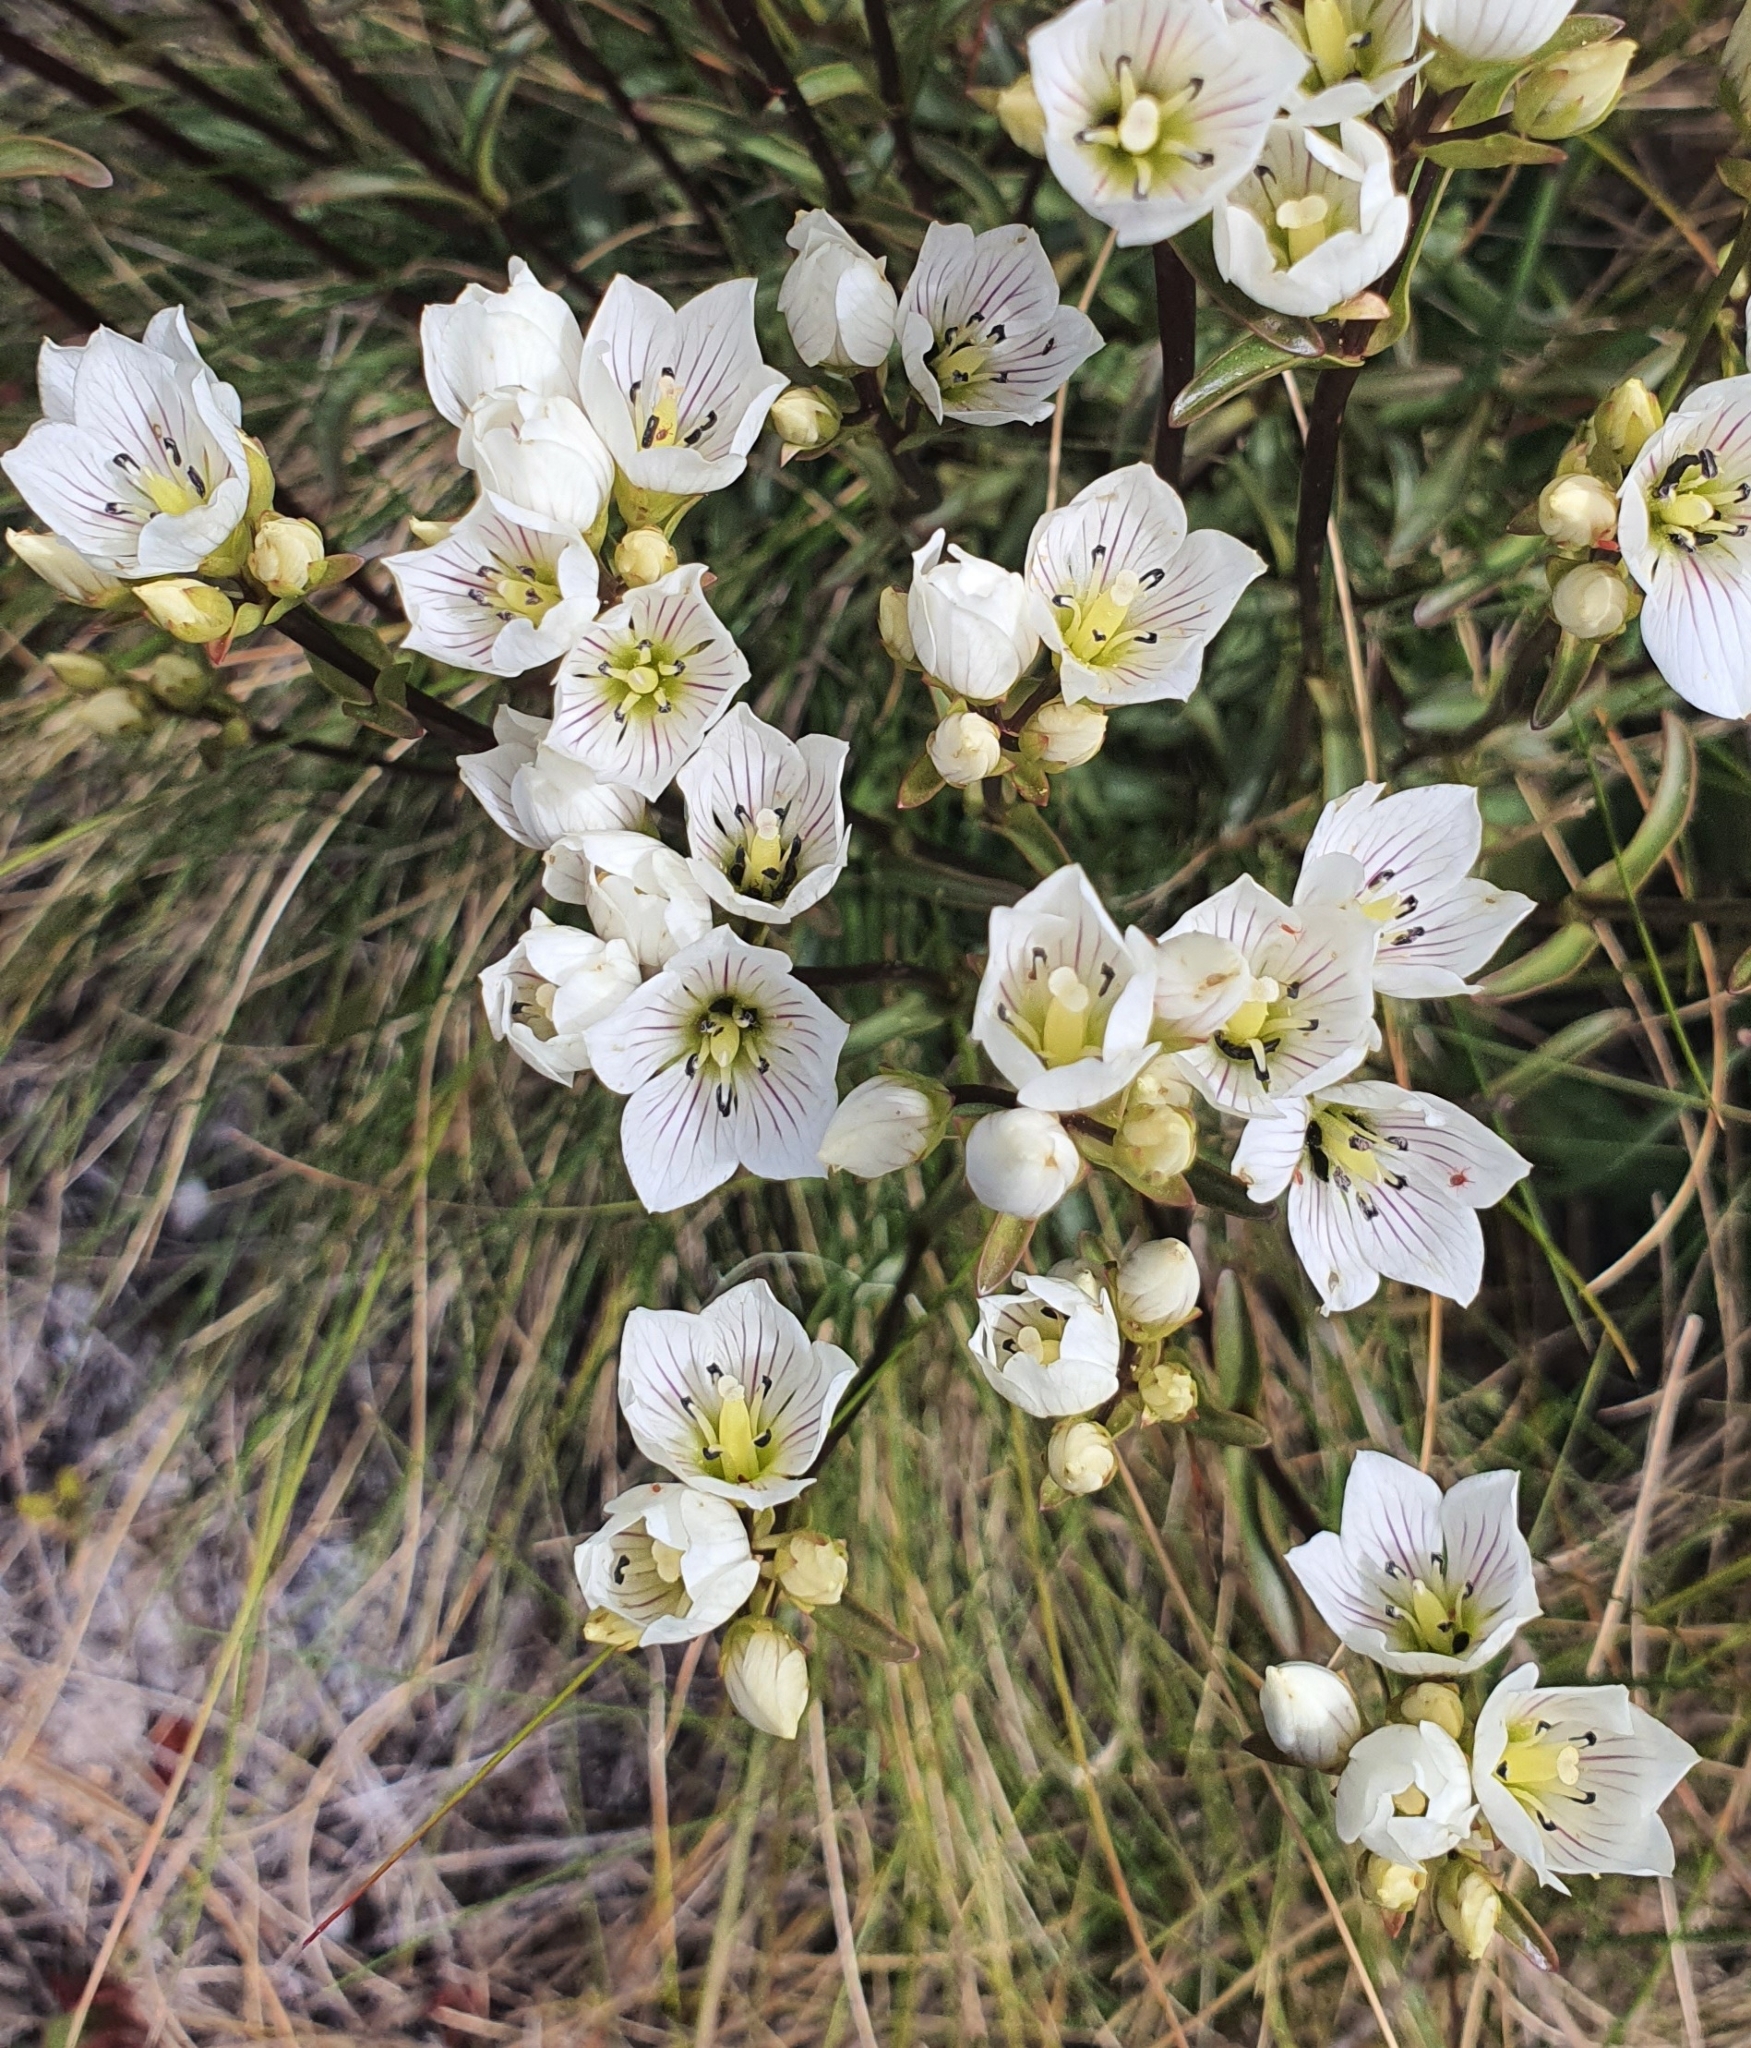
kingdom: Plantae
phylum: Tracheophyta
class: Magnoliopsida
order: Gentianales
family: Gentianaceae
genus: Gentianella
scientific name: Gentianella corymbifera
